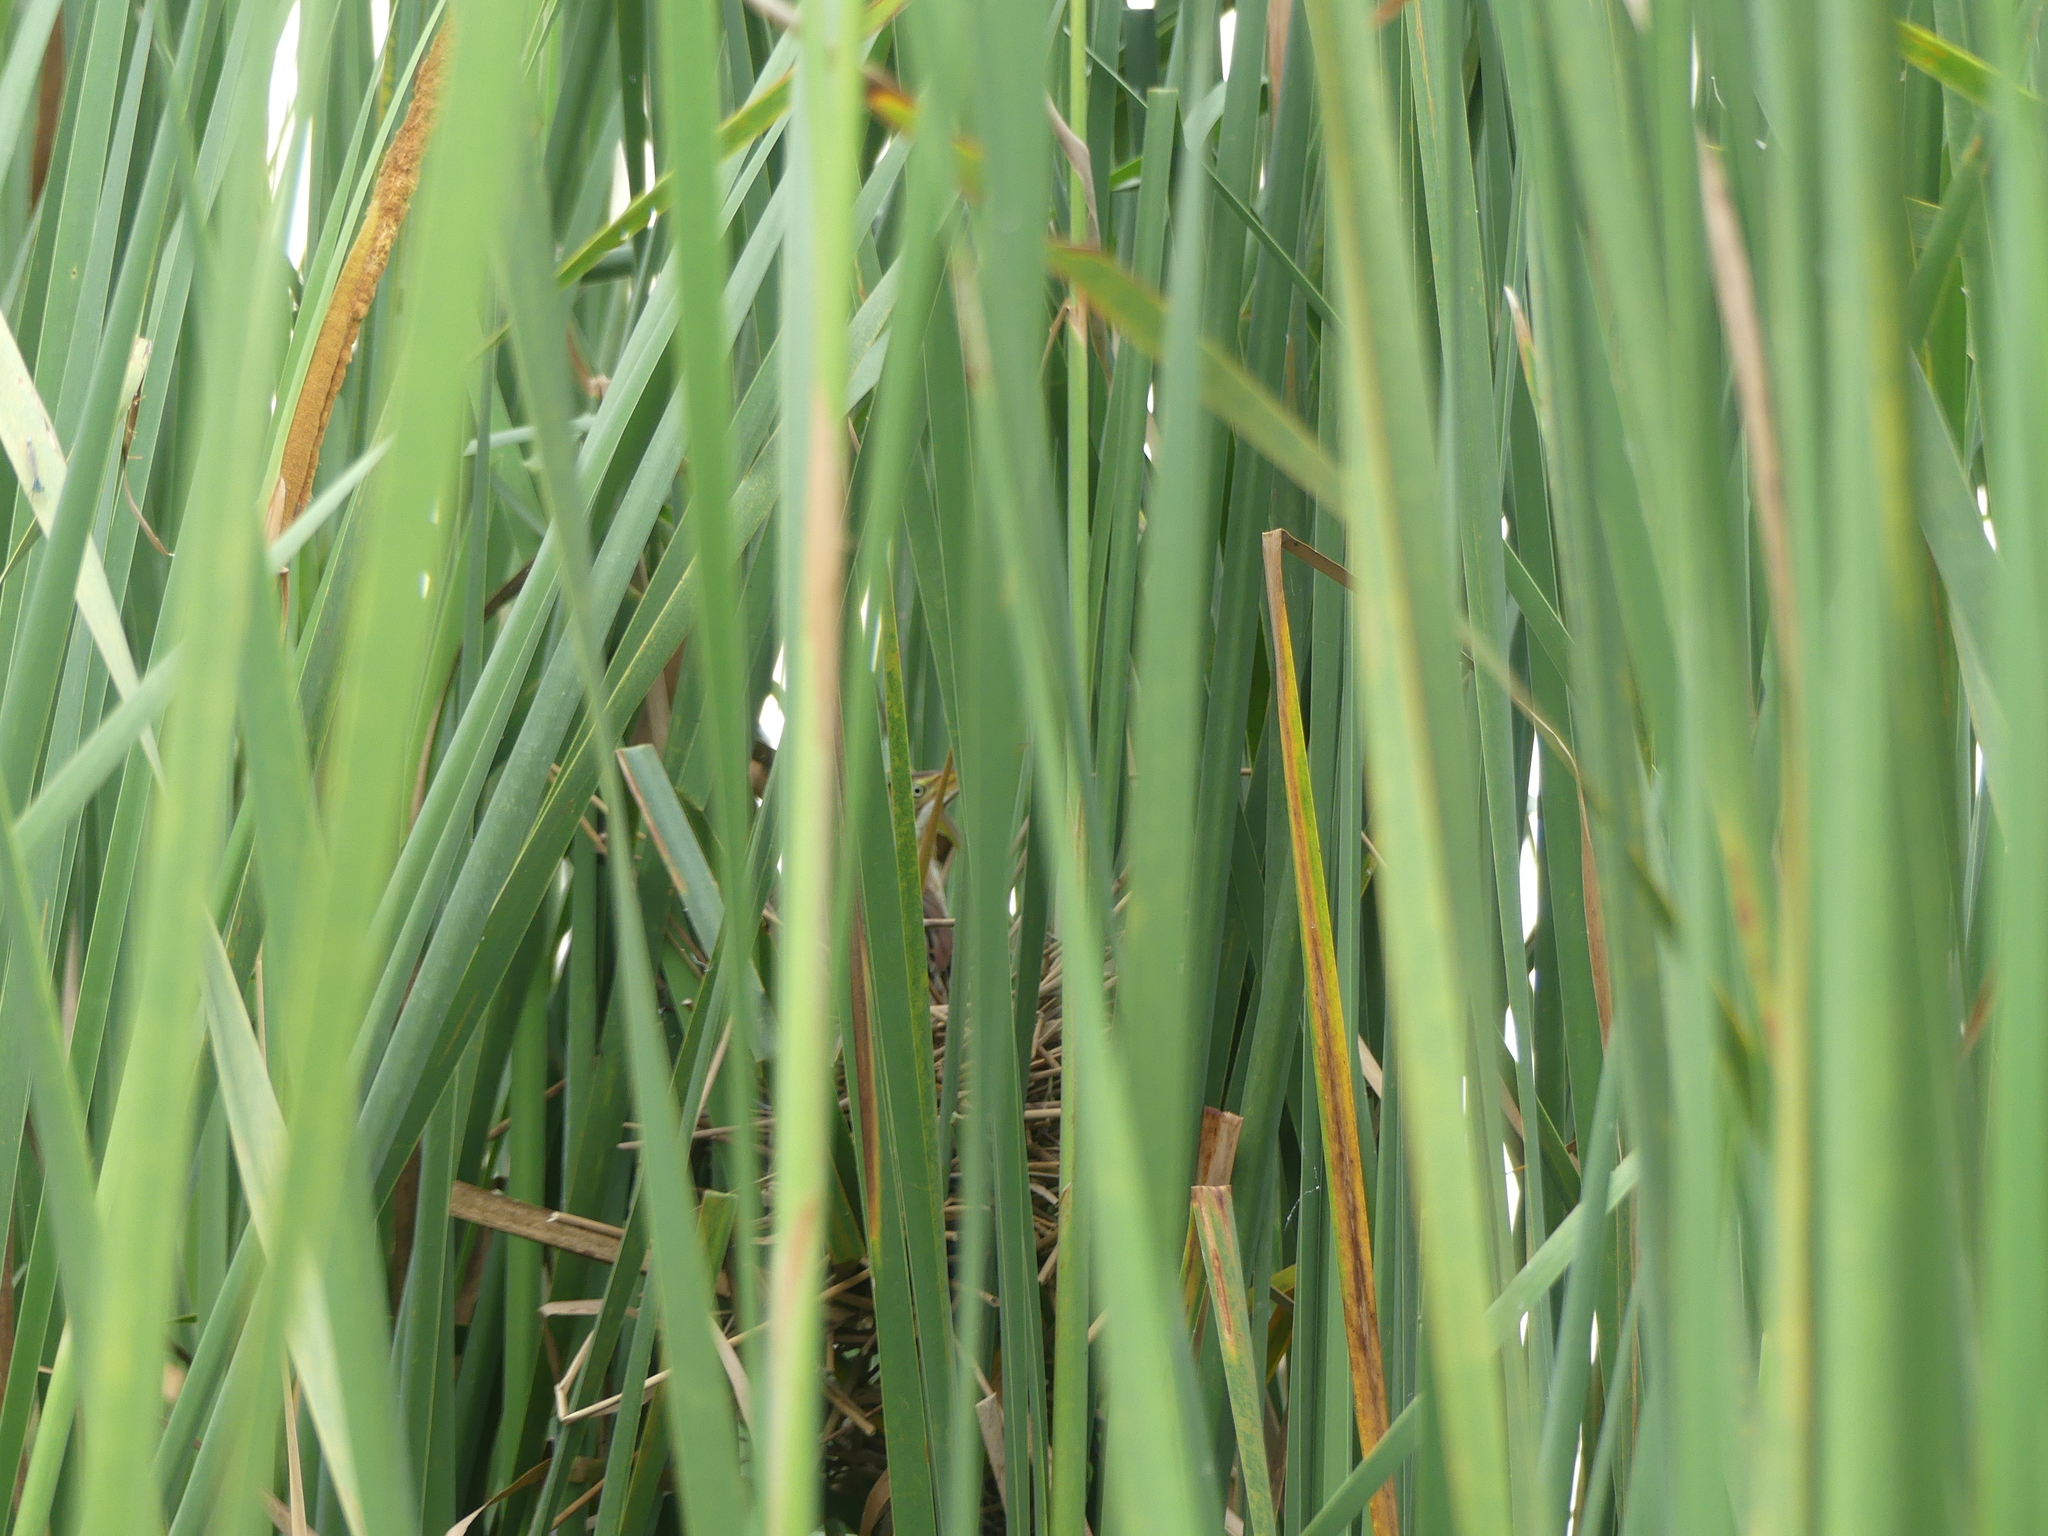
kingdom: Animalia
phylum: Chordata
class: Aves
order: Pelecaniformes
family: Ardeidae
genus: Ixobrychus
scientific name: Ixobrychus exilis
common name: Least bittern
